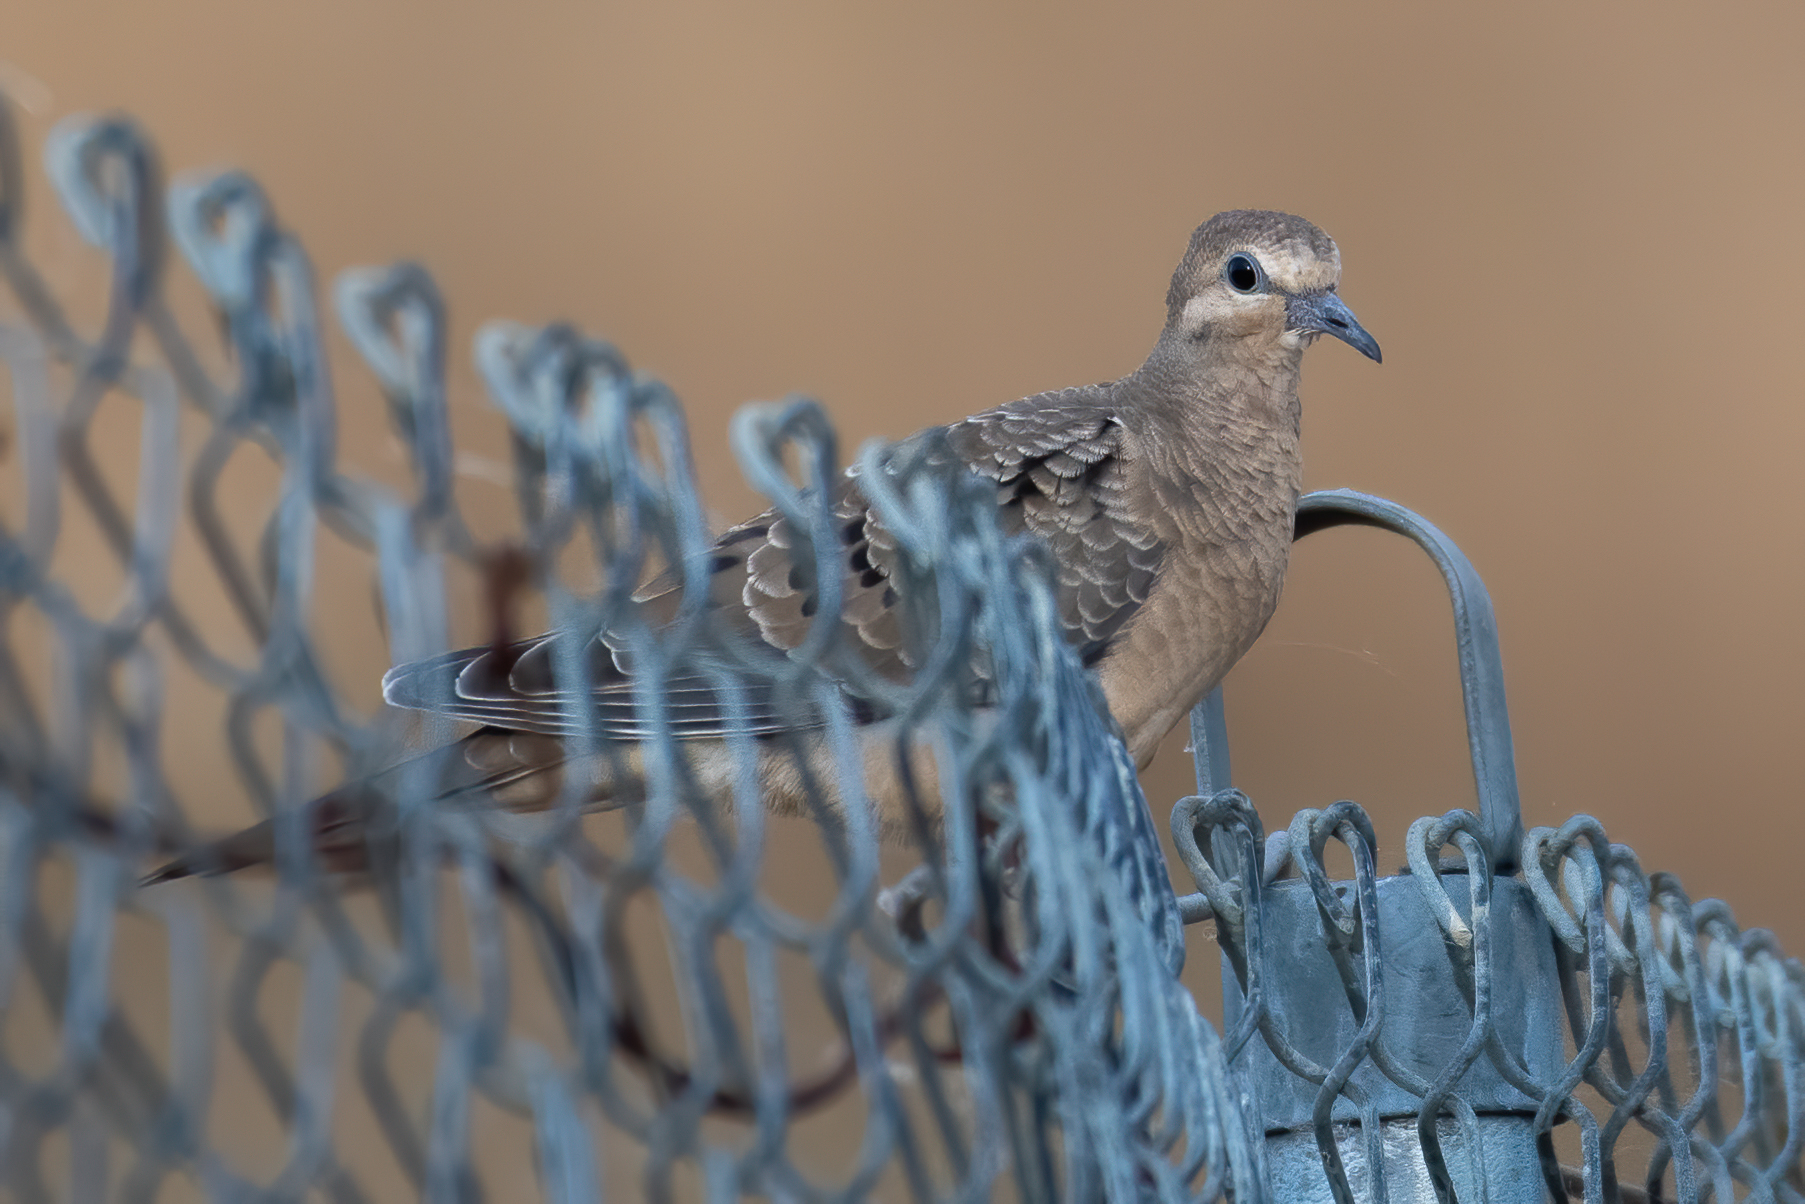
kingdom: Animalia
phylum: Chordata
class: Aves
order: Columbiformes
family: Columbidae
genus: Zenaida
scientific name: Zenaida macroura
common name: Mourning dove
